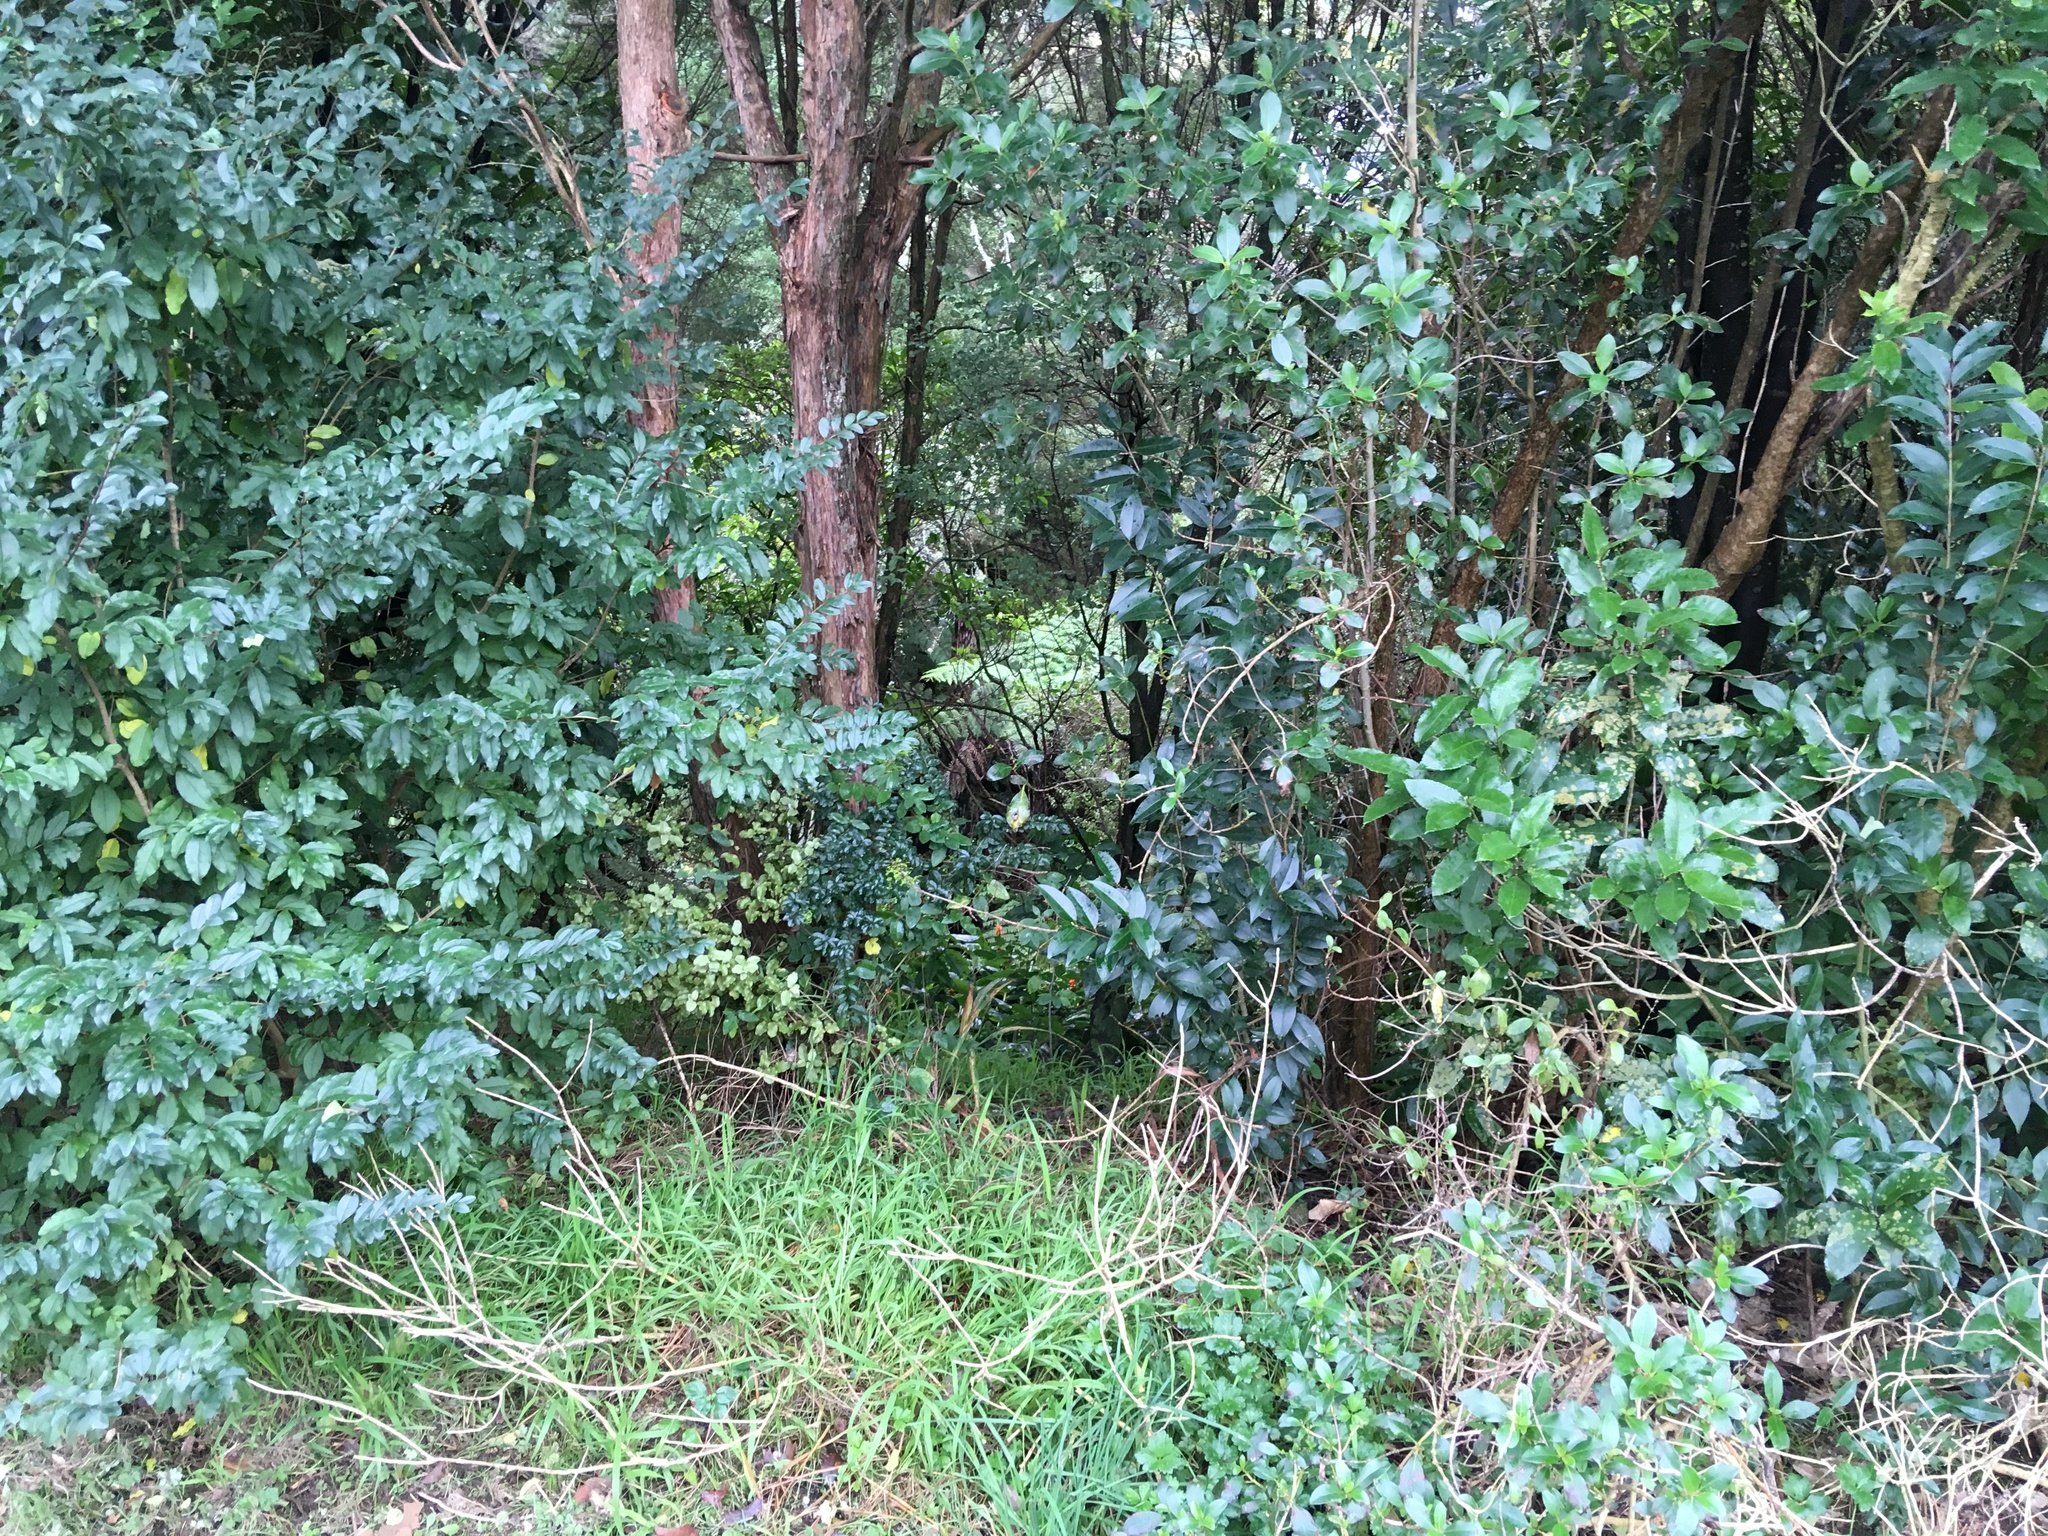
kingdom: Plantae
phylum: Tracheophyta
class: Magnoliopsida
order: Lamiales
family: Oleaceae
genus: Ligustrum
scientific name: Ligustrum sinense
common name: Chinese privet
